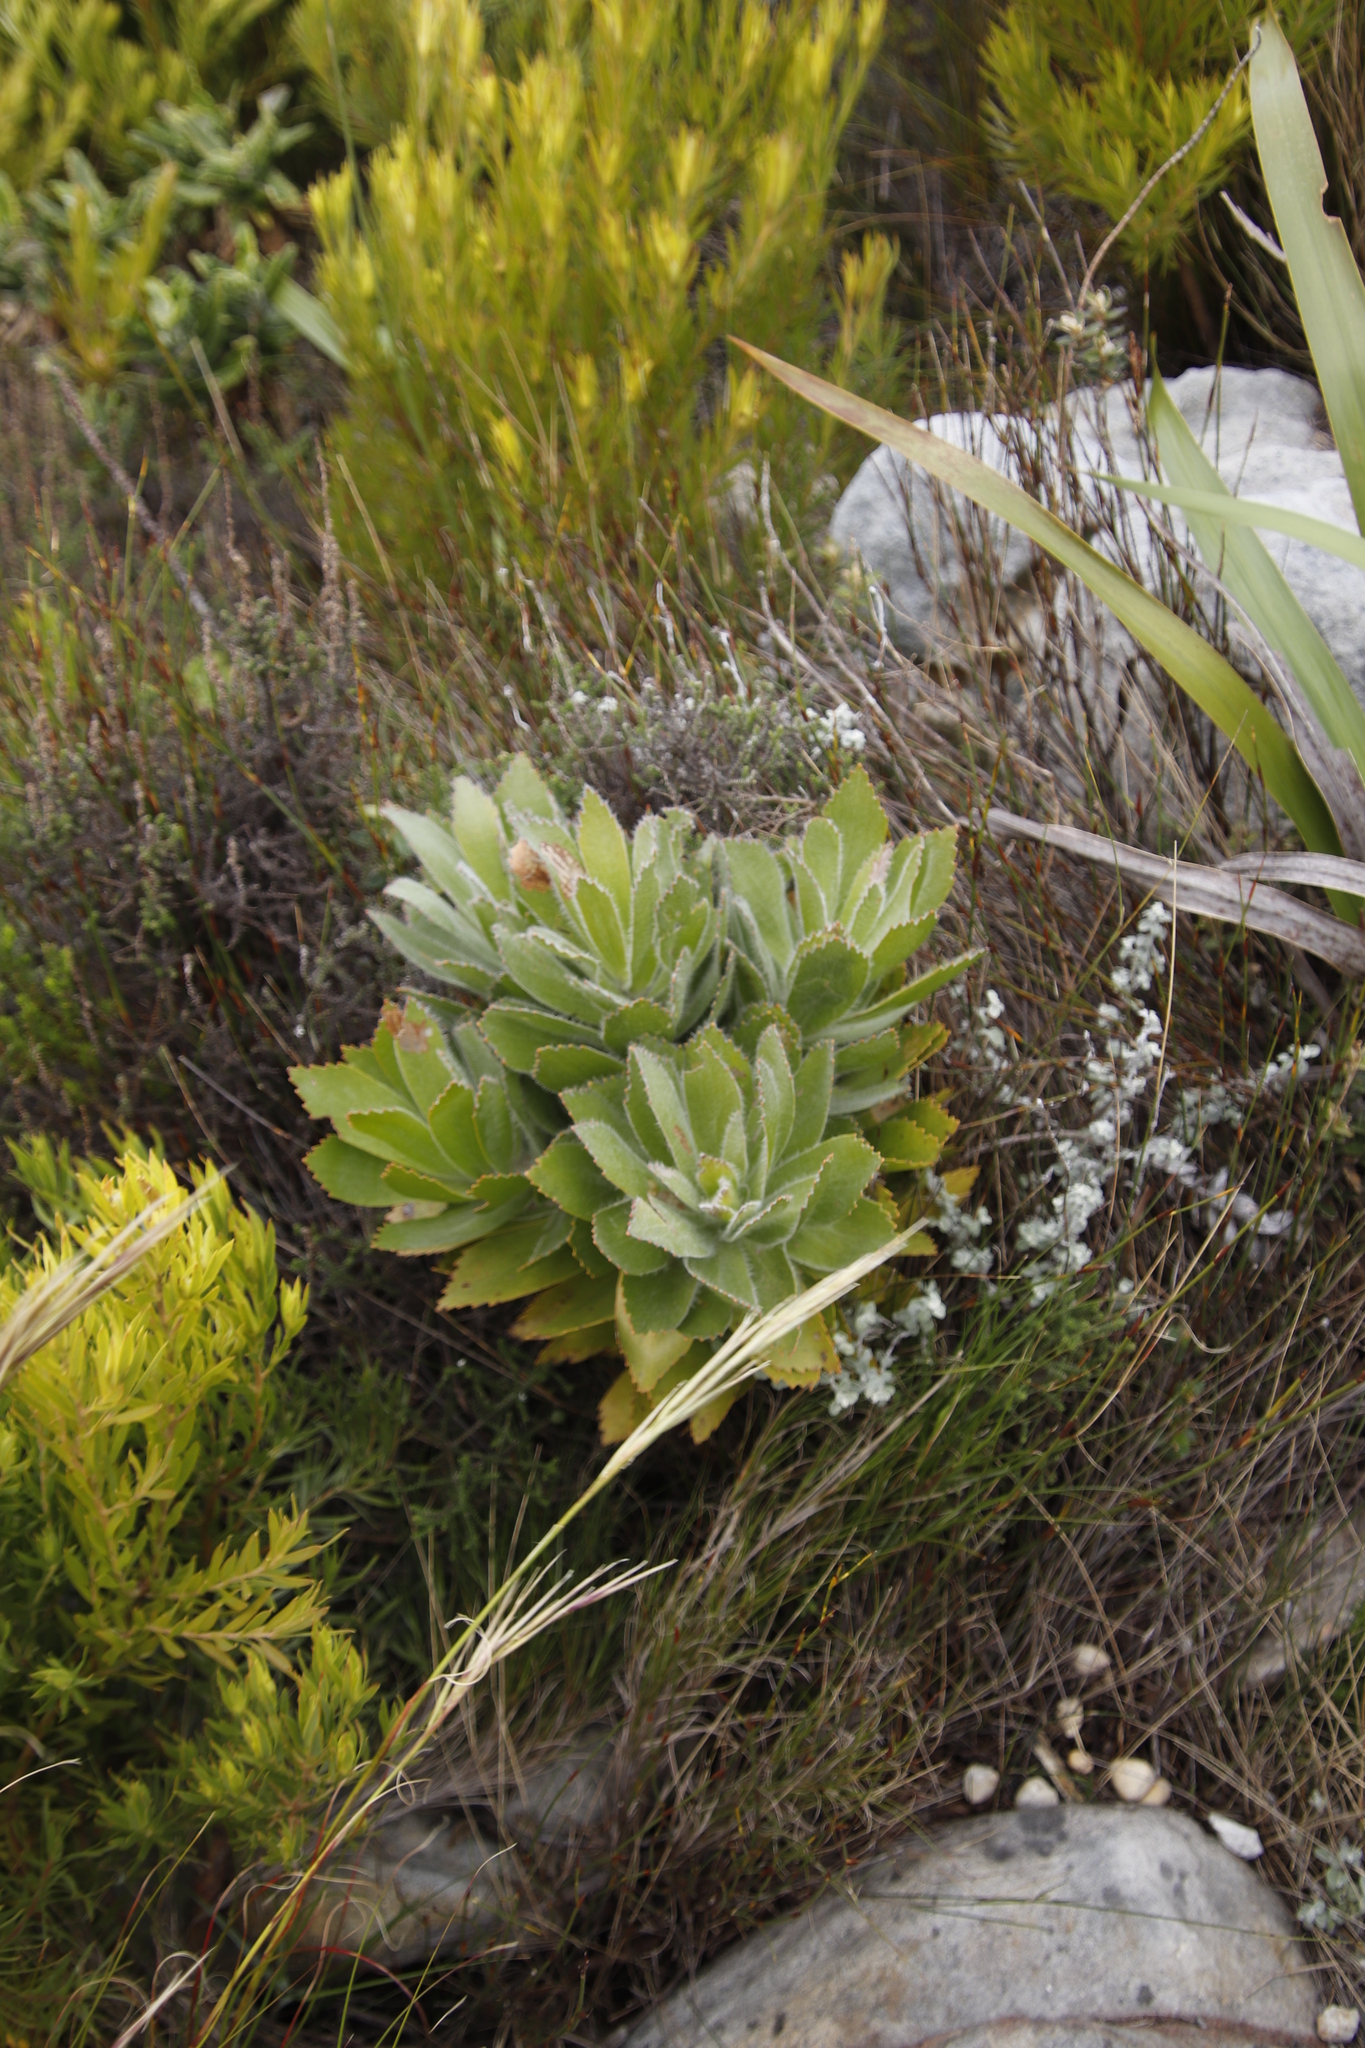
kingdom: Plantae
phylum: Tracheophyta
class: Magnoliopsida
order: Proteales
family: Proteaceae
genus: Leucospermum
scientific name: Leucospermum conocarpodendron
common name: Tree pincushion
